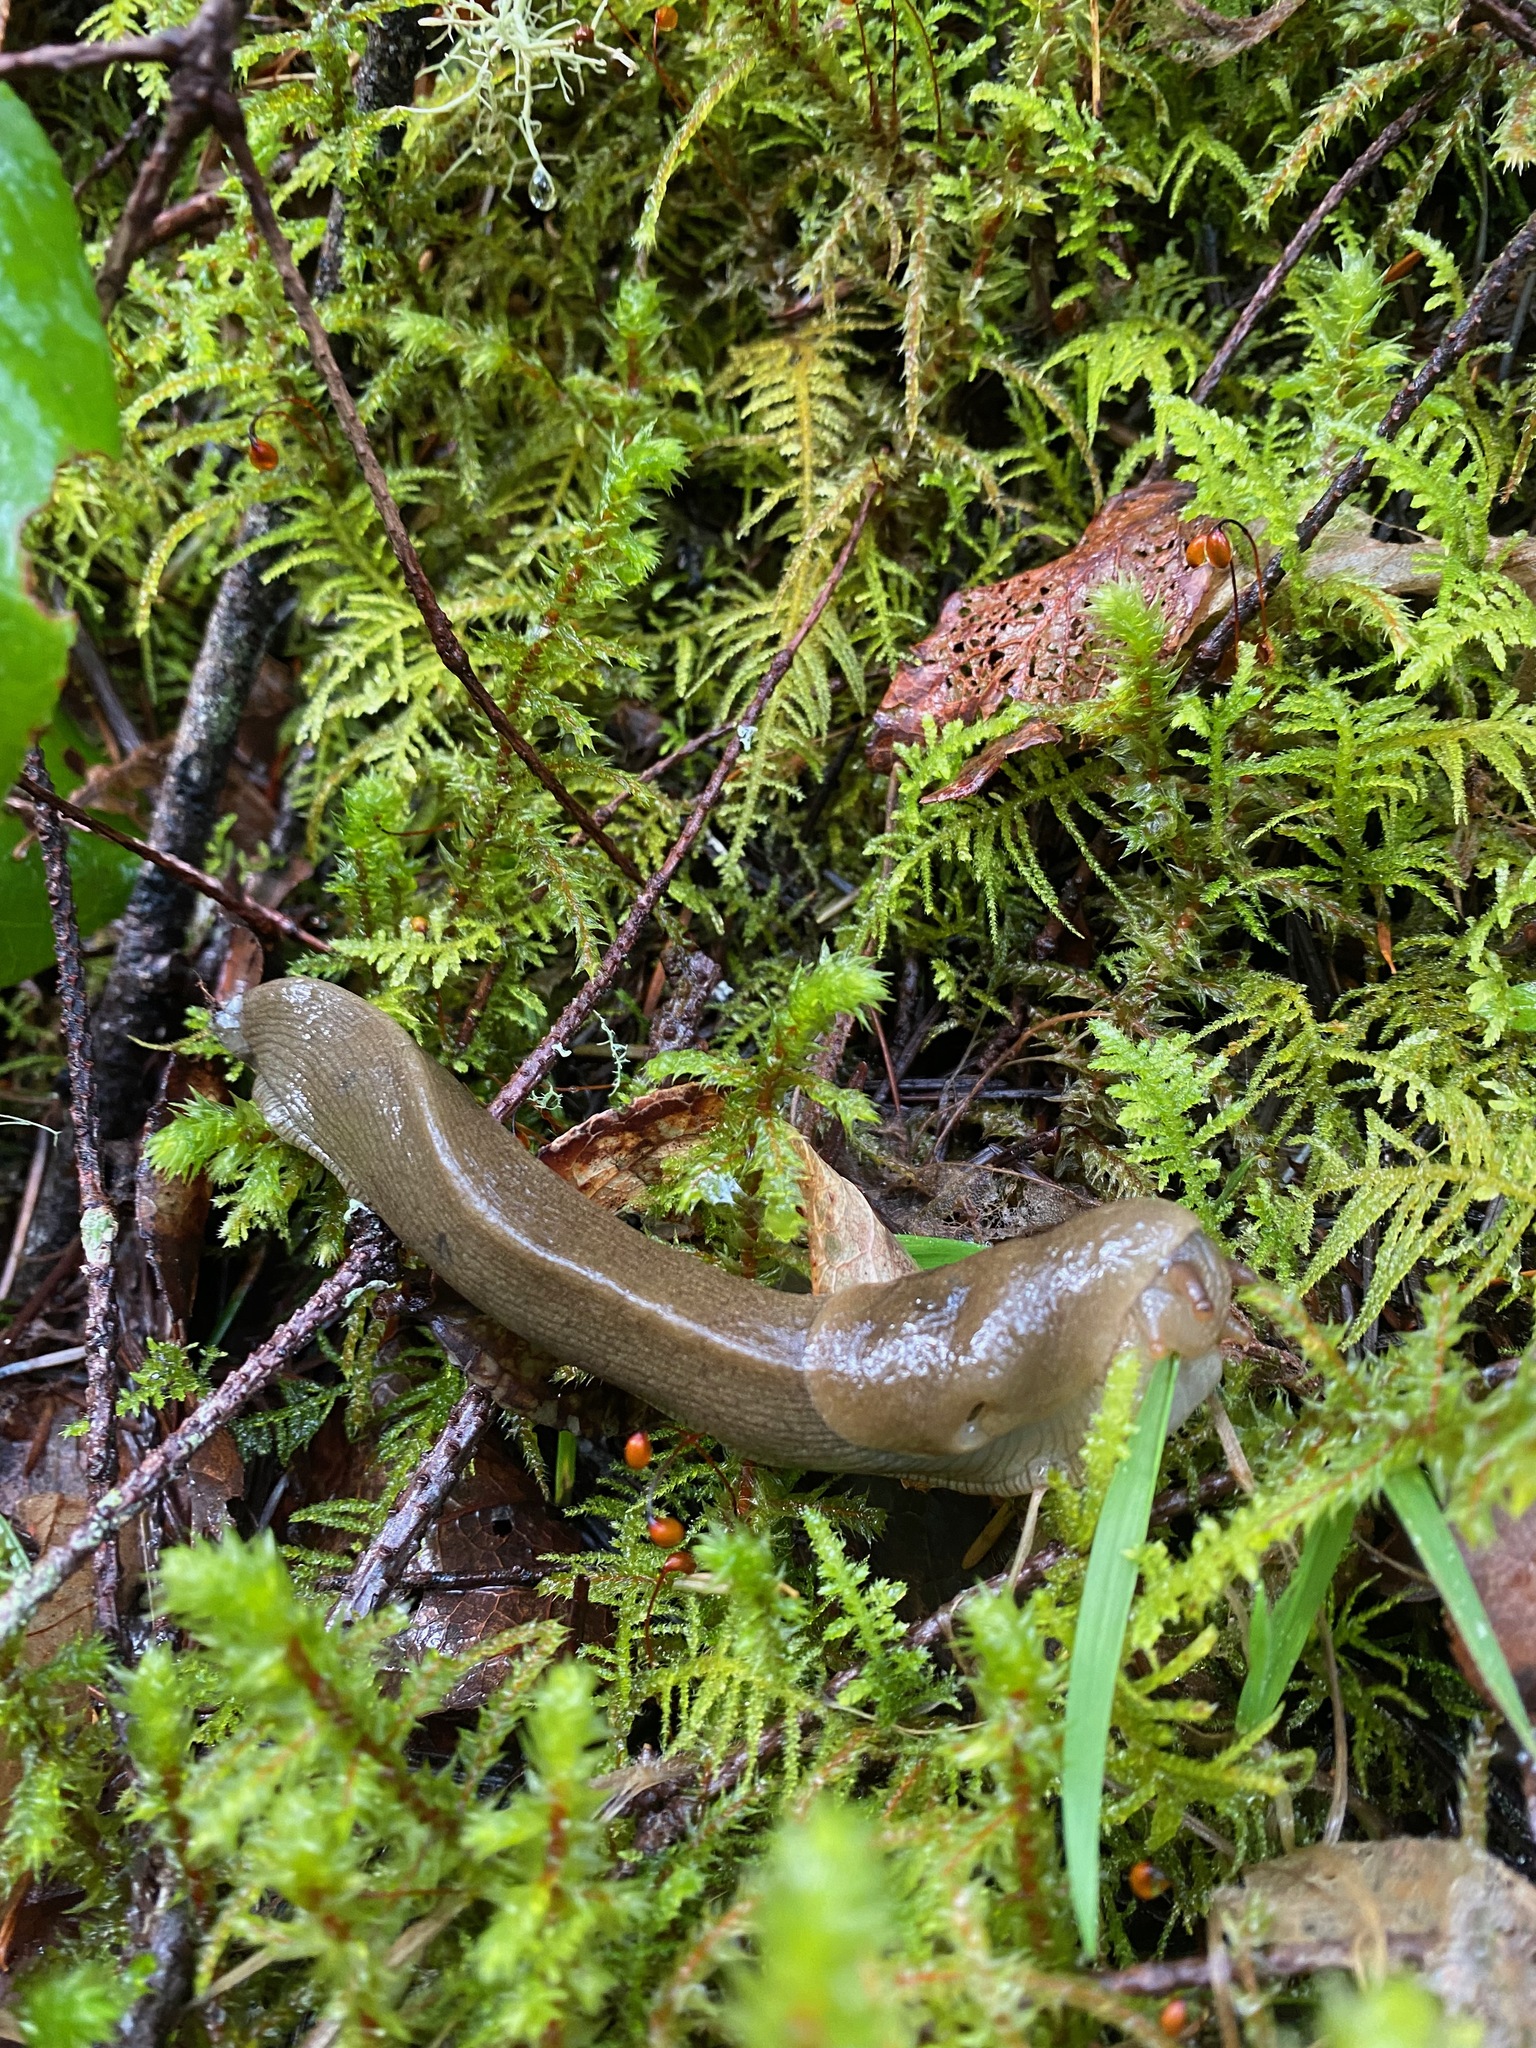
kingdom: Animalia
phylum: Mollusca
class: Gastropoda
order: Stylommatophora
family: Ariolimacidae
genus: Ariolimax
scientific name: Ariolimax columbianus
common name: Pacific banana slug
